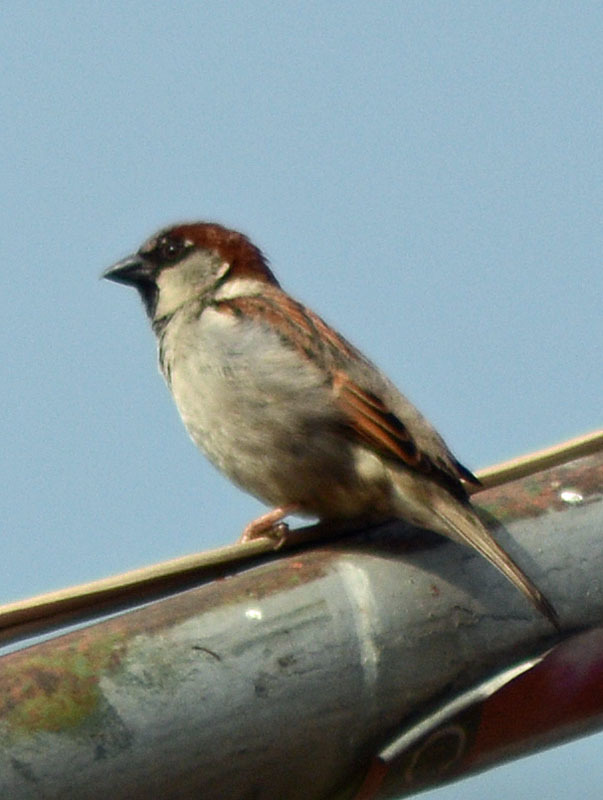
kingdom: Animalia
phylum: Chordata
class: Aves
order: Passeriformes
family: Passeridae
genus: Passer
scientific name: Passer domesticus
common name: House sparrow
